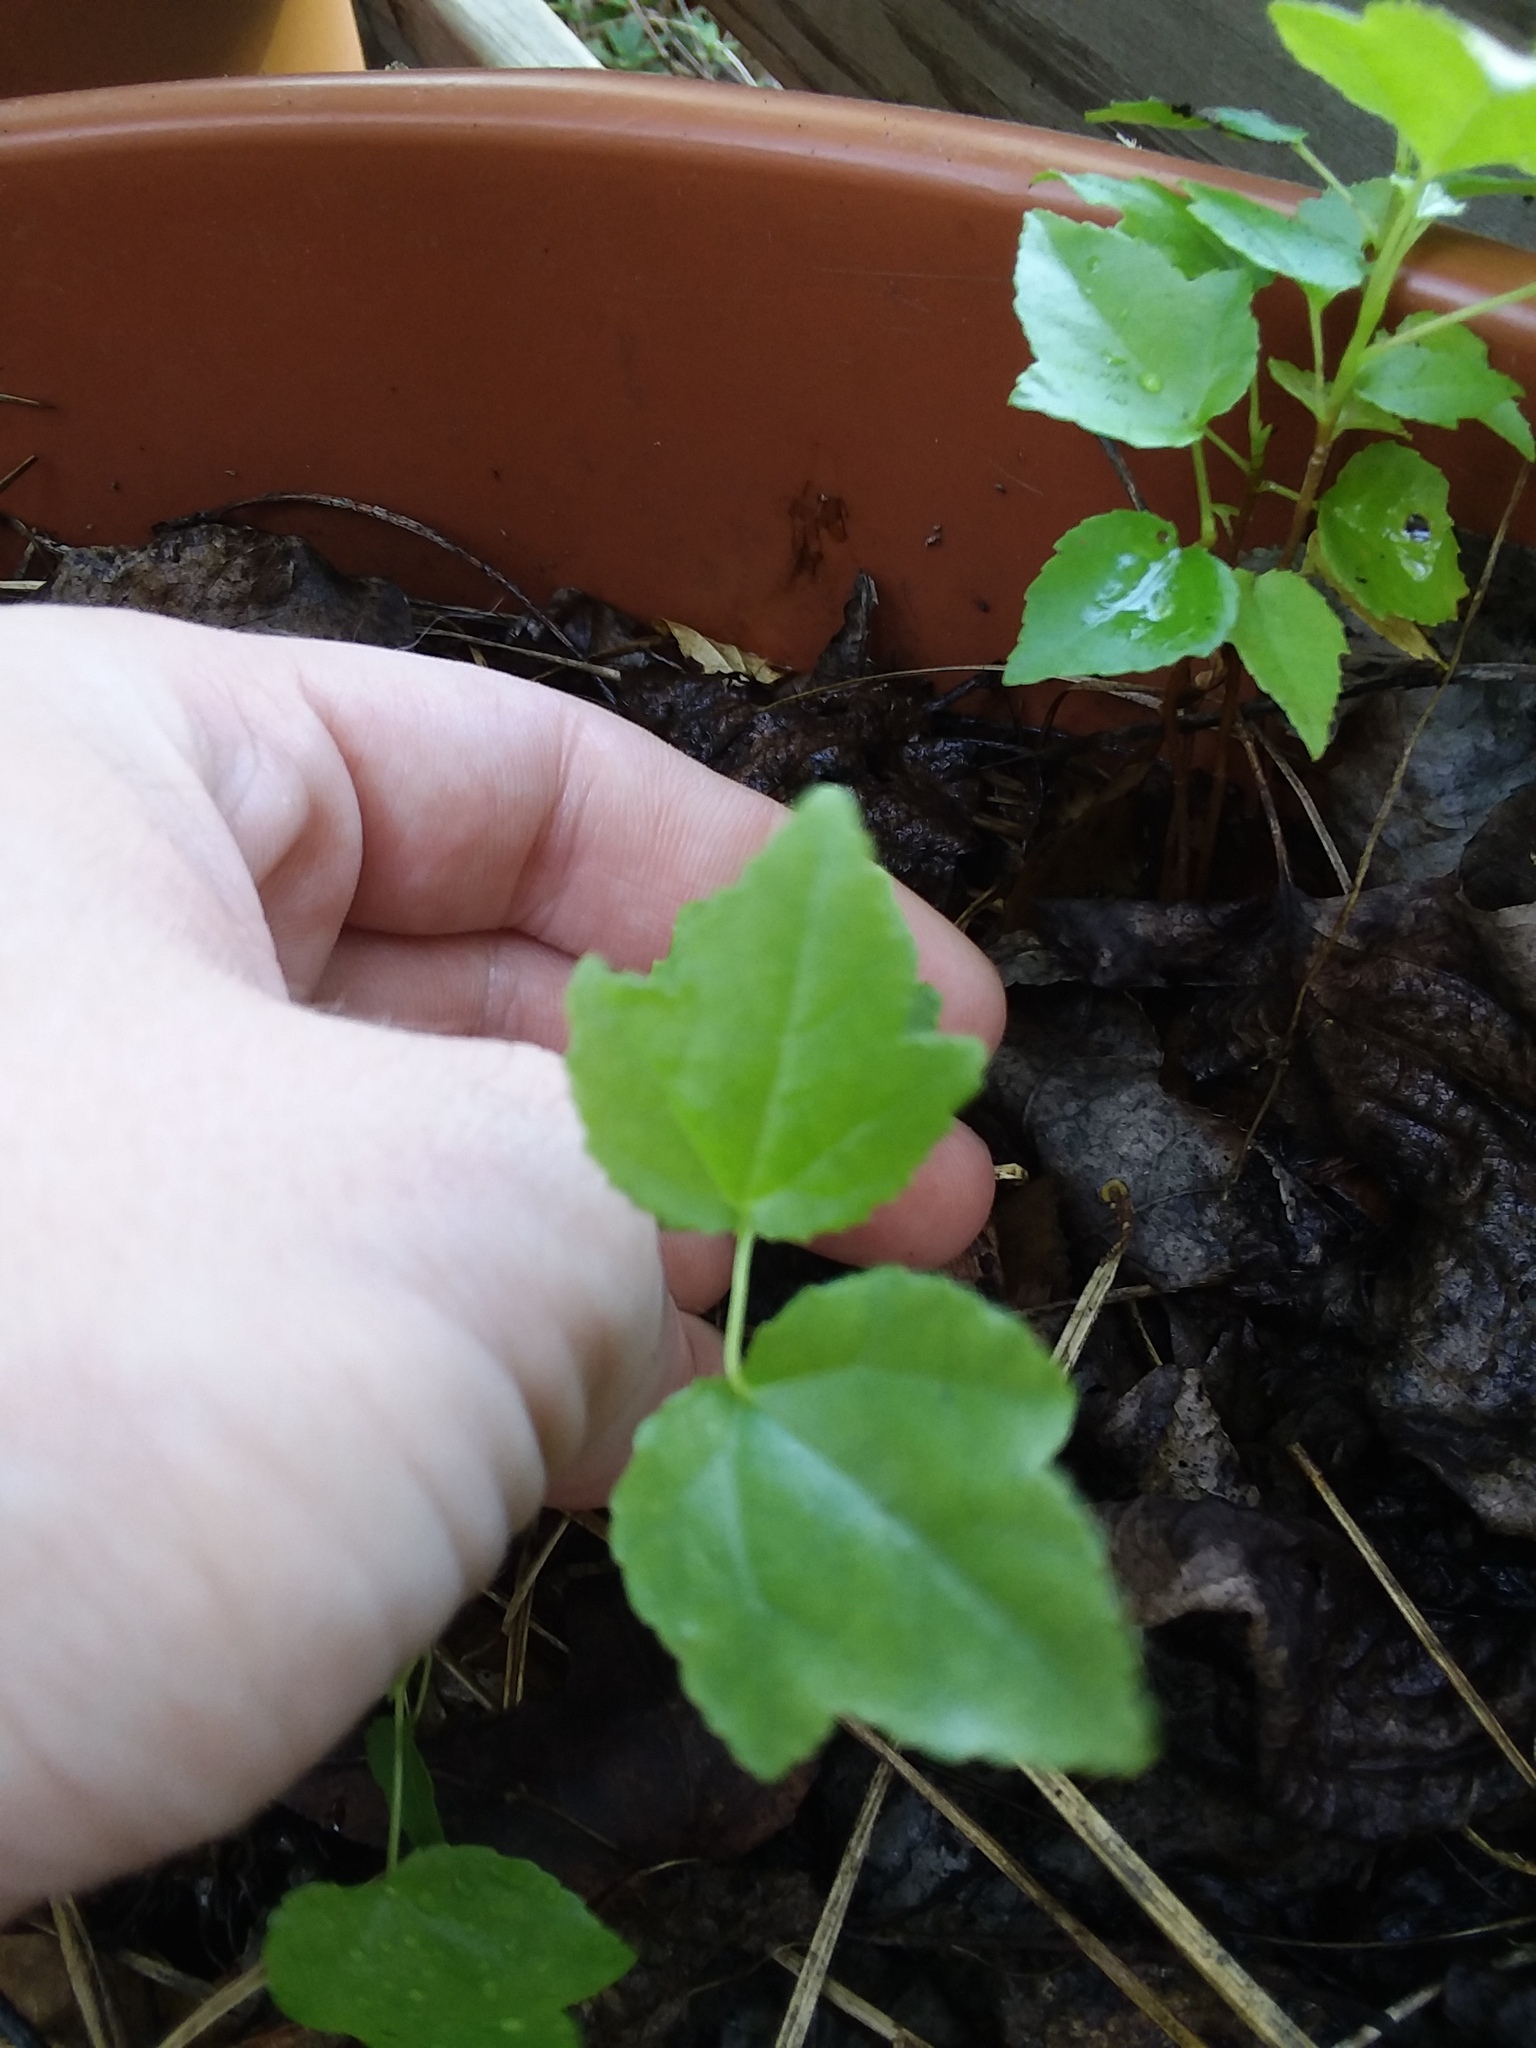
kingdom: Plantae
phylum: Tracheophyta
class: Magnoliopsida
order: Saxifragales
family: Altingiaceae
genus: Liquidambar
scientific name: Liquidambar styraciflua
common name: Sweet gum
